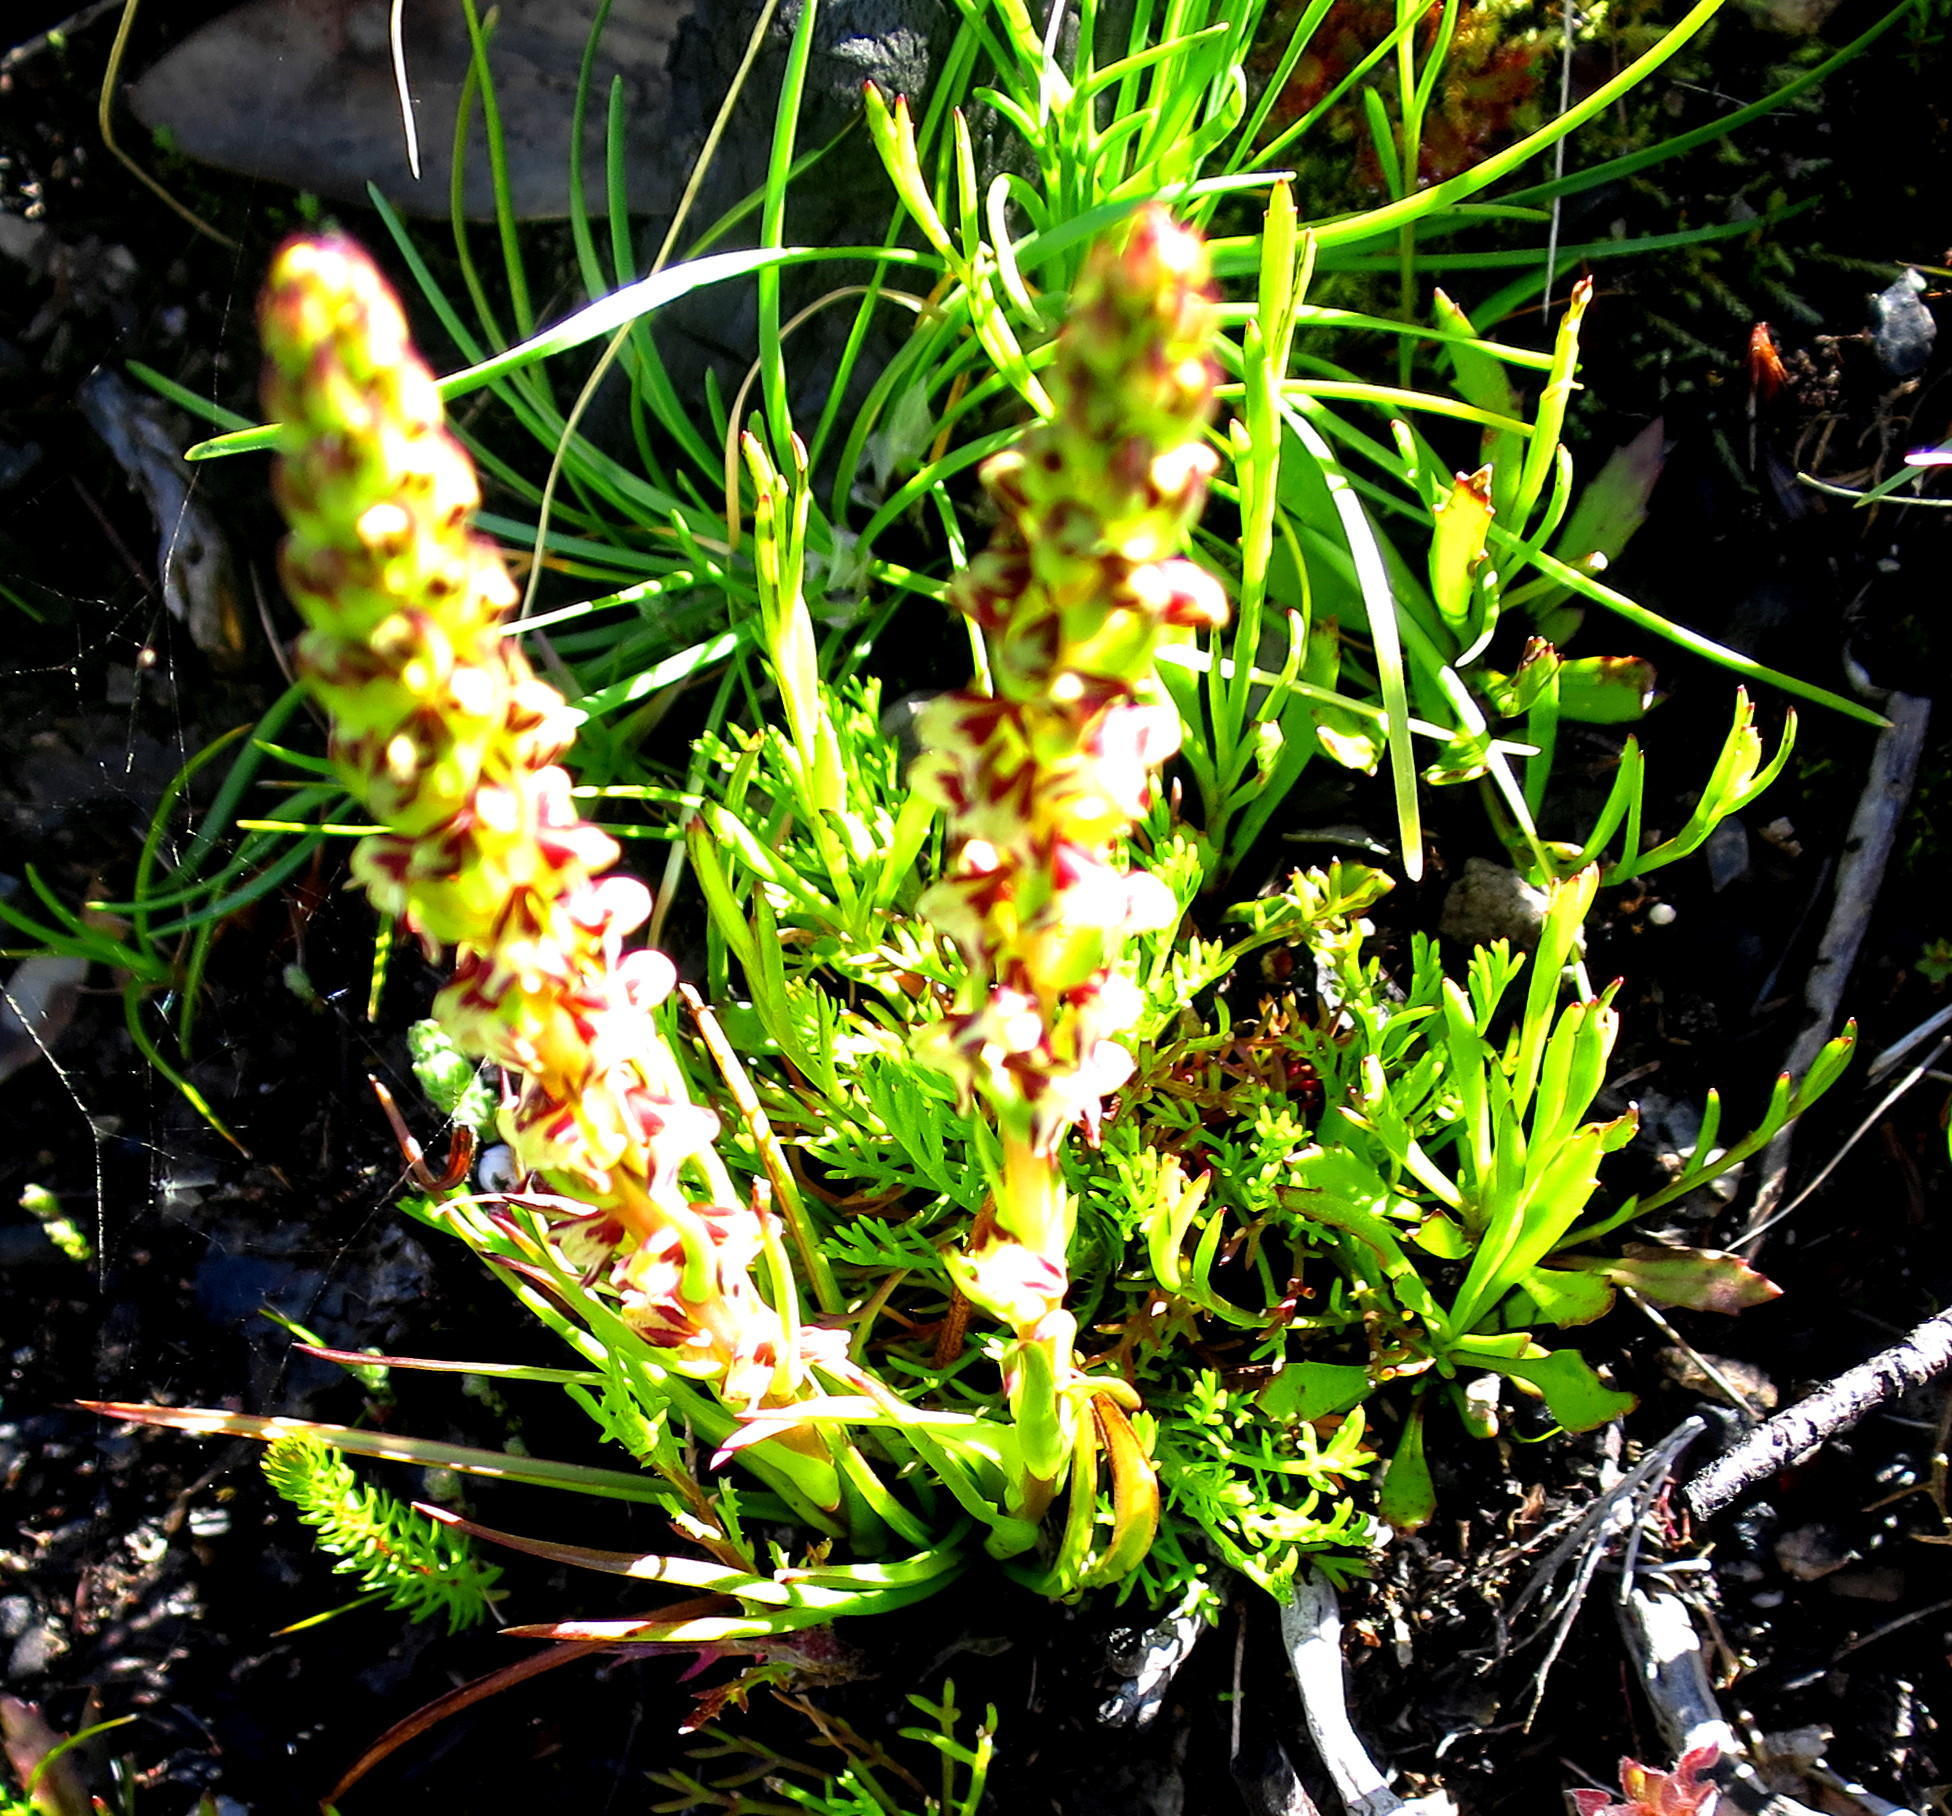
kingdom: Plantae
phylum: Tracheophyta
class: Liliopsida
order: Asparagales
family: Orchidaceae
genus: Disa
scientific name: Disa obtusa
